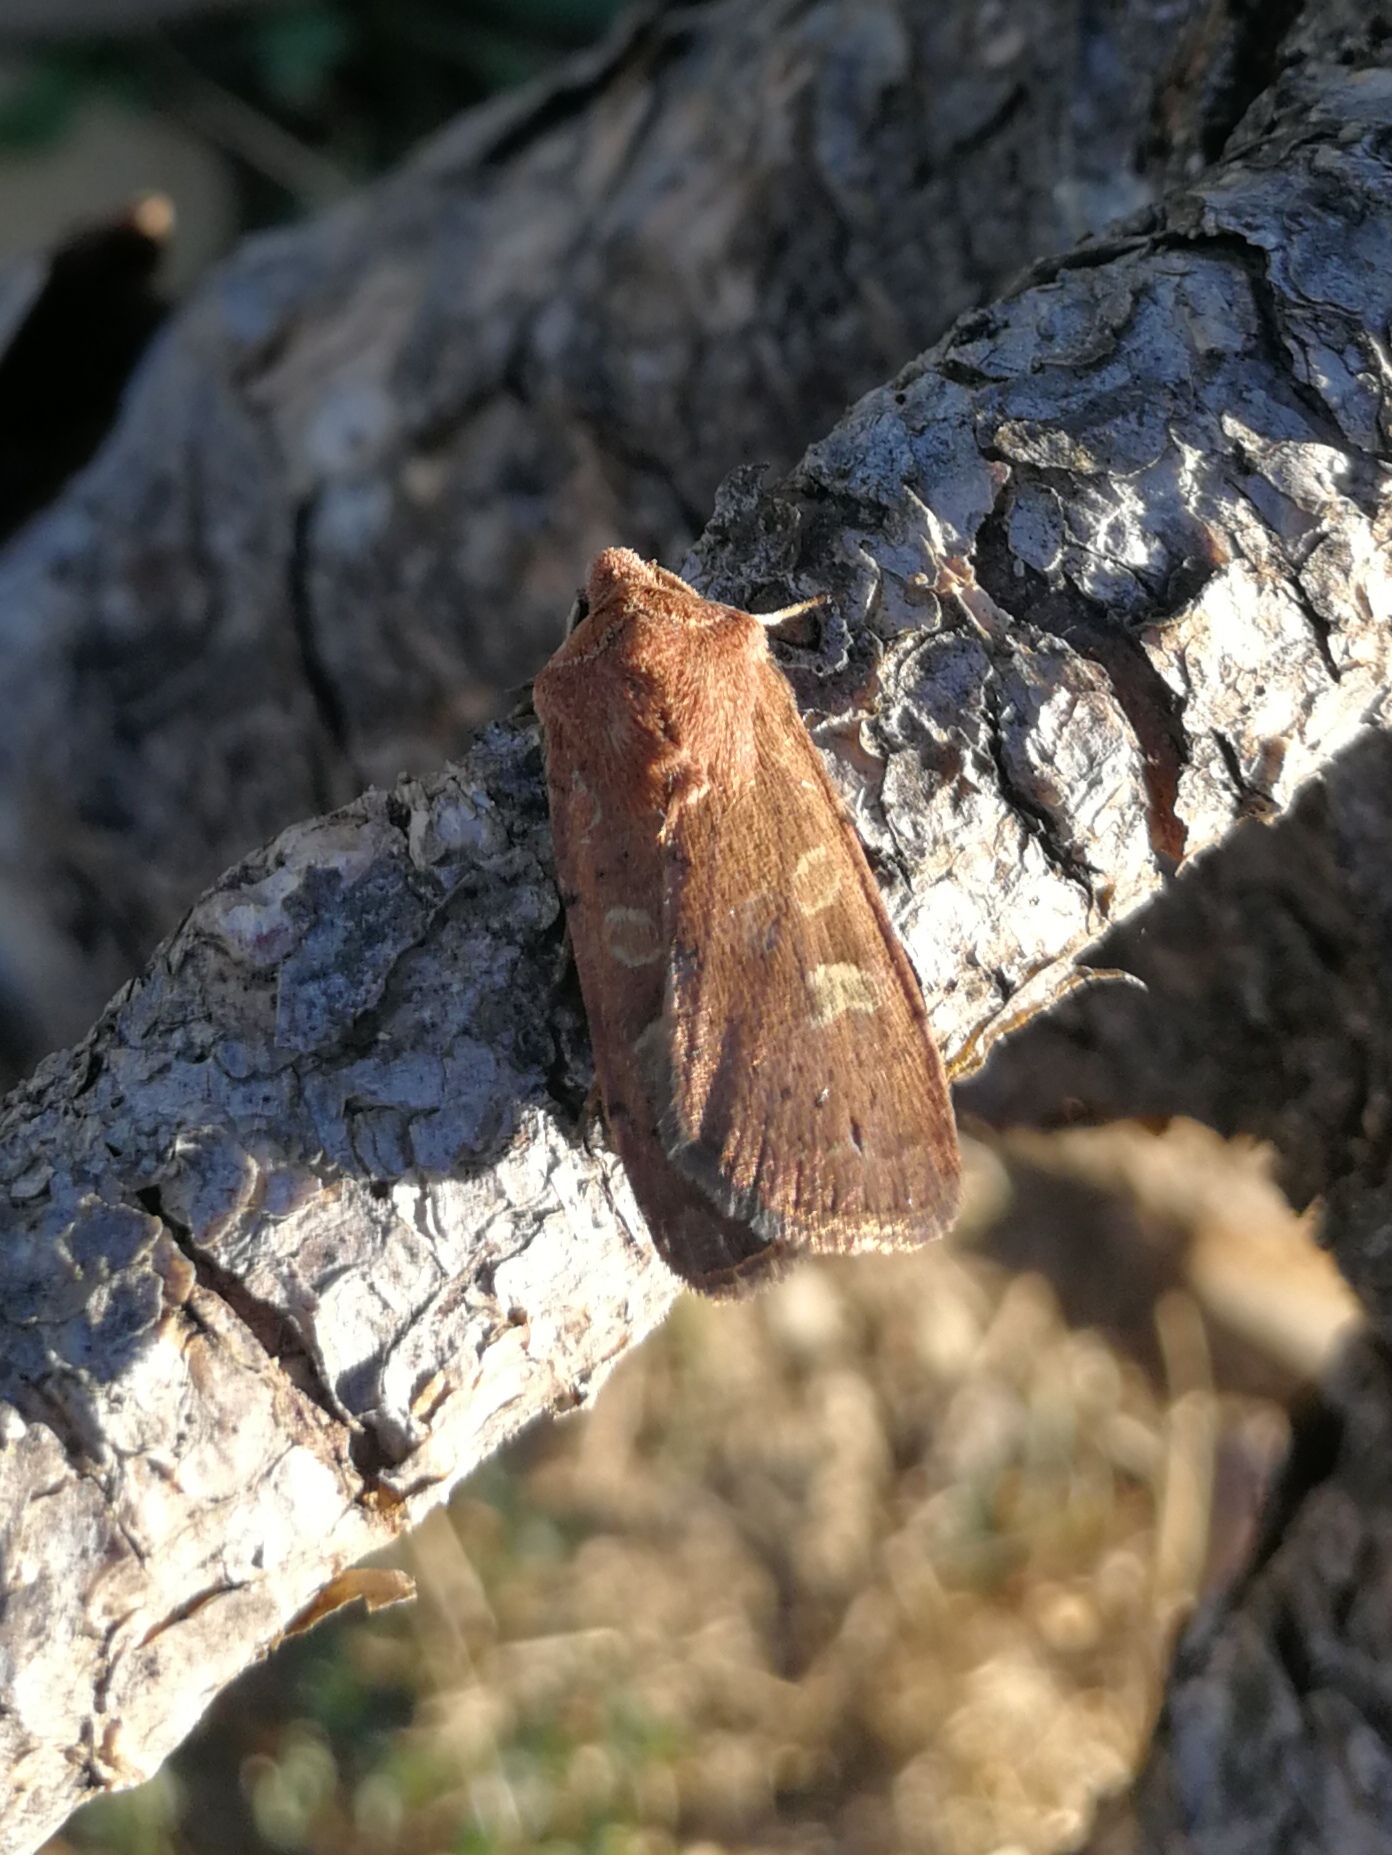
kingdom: Animalia
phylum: Arthropoda
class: Insecta
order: Lepidoptera
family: Noctuidae
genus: Xestia
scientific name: Xestia xanthographa
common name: Square-spot rustic
